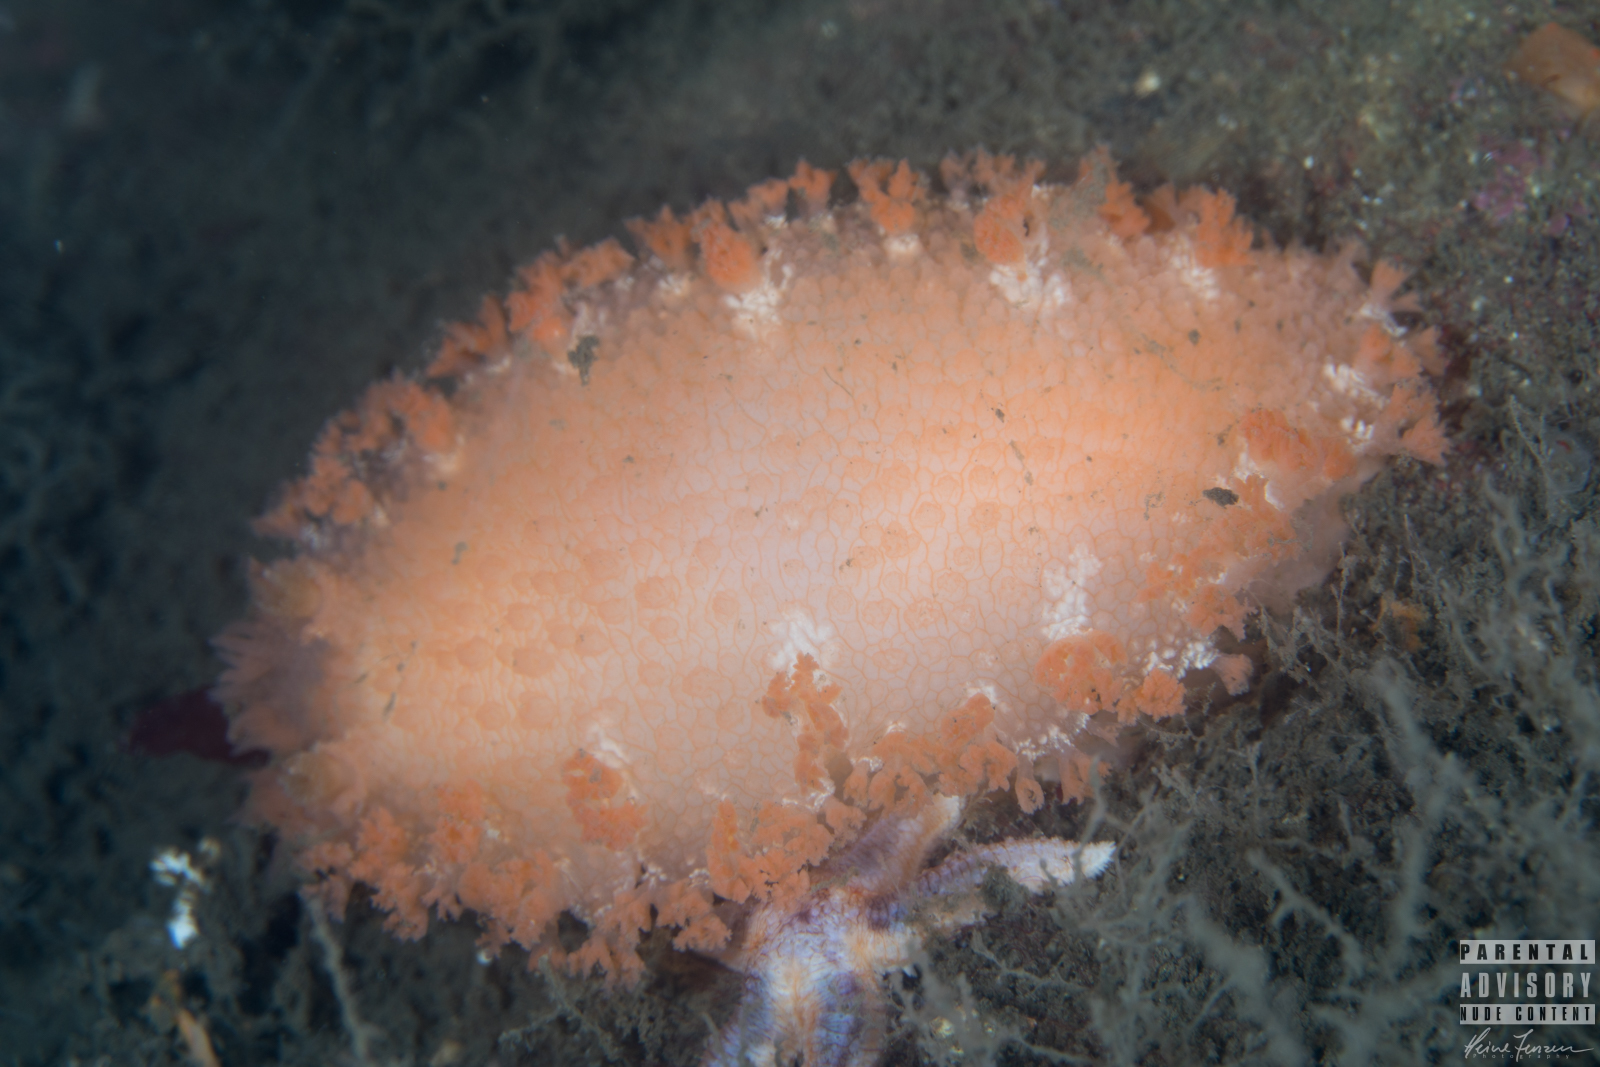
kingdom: Animalia
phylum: Mollusca
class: Gastropoda
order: Nudibranchia
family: Tritoniidae
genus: Tritonia
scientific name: Tritonia hombergii
